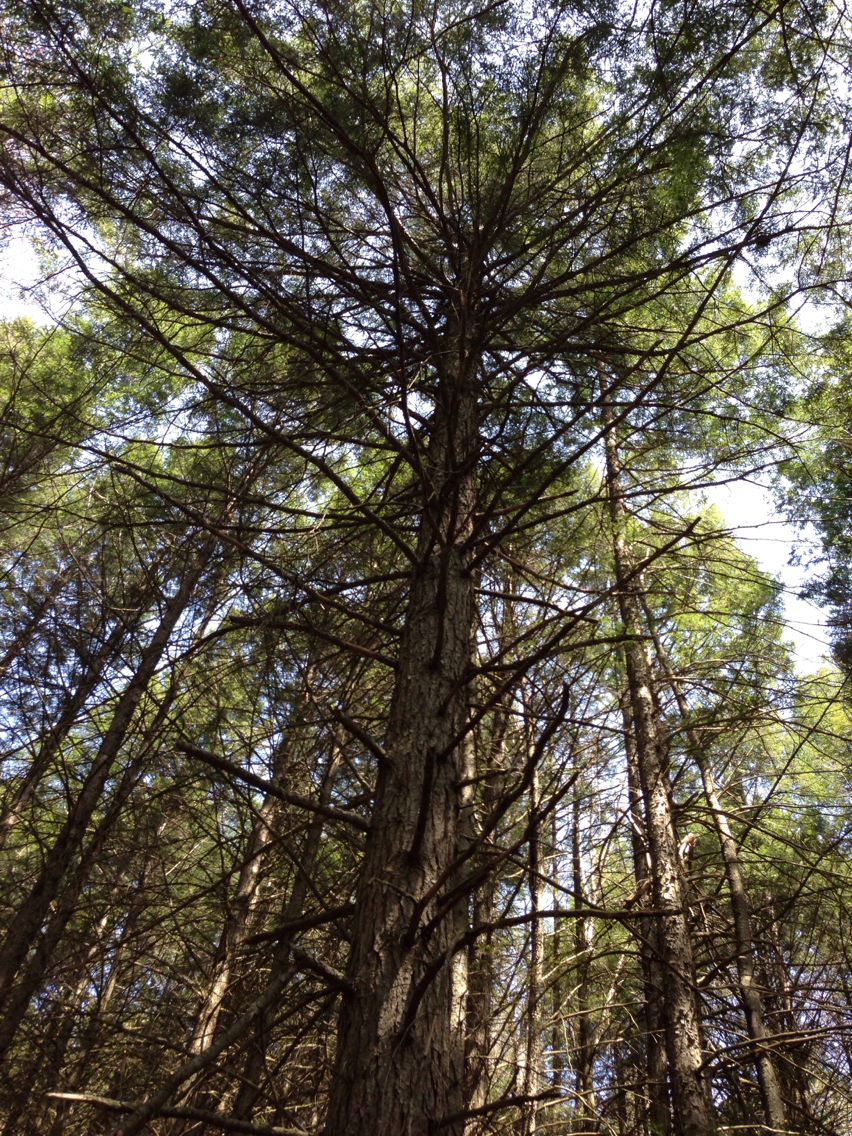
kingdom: Plantae
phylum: Tracheophyta
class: Pinopsida
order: Pinales
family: Pinaceae
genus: Tsuga
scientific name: Tsuga canadensis
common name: Eastern hemlock
